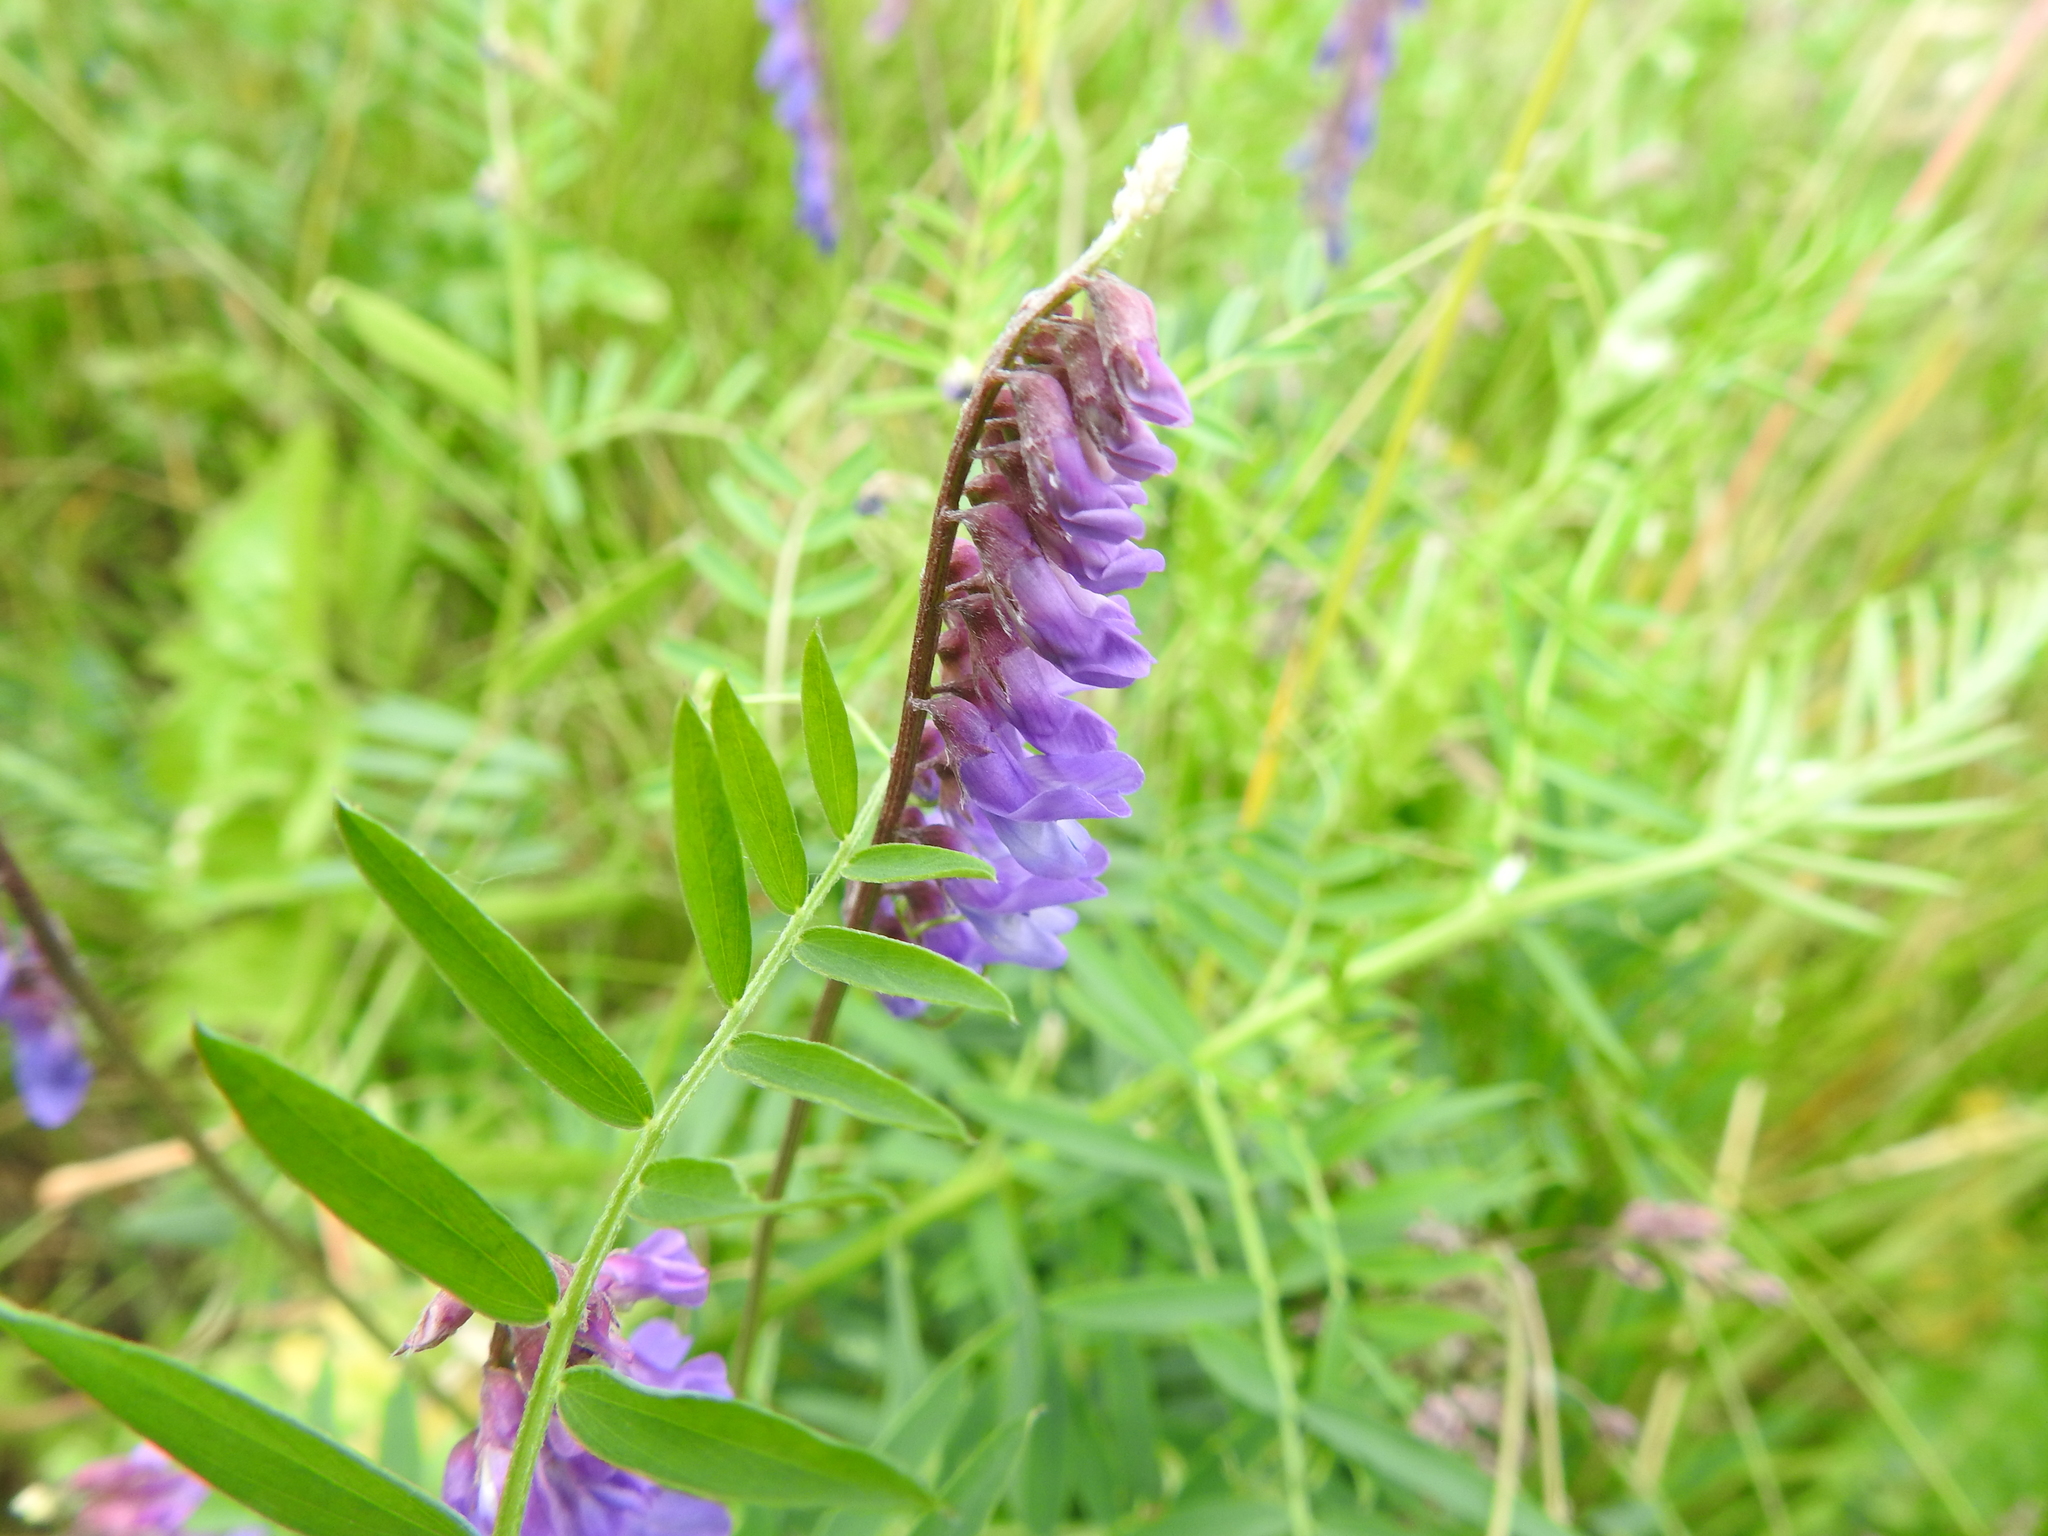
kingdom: Plantae
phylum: Tracheophyta
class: Magnoliopsida
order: Fabales
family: Fabaceae
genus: Vicia
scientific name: Vicia cracca
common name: Bird vetch
